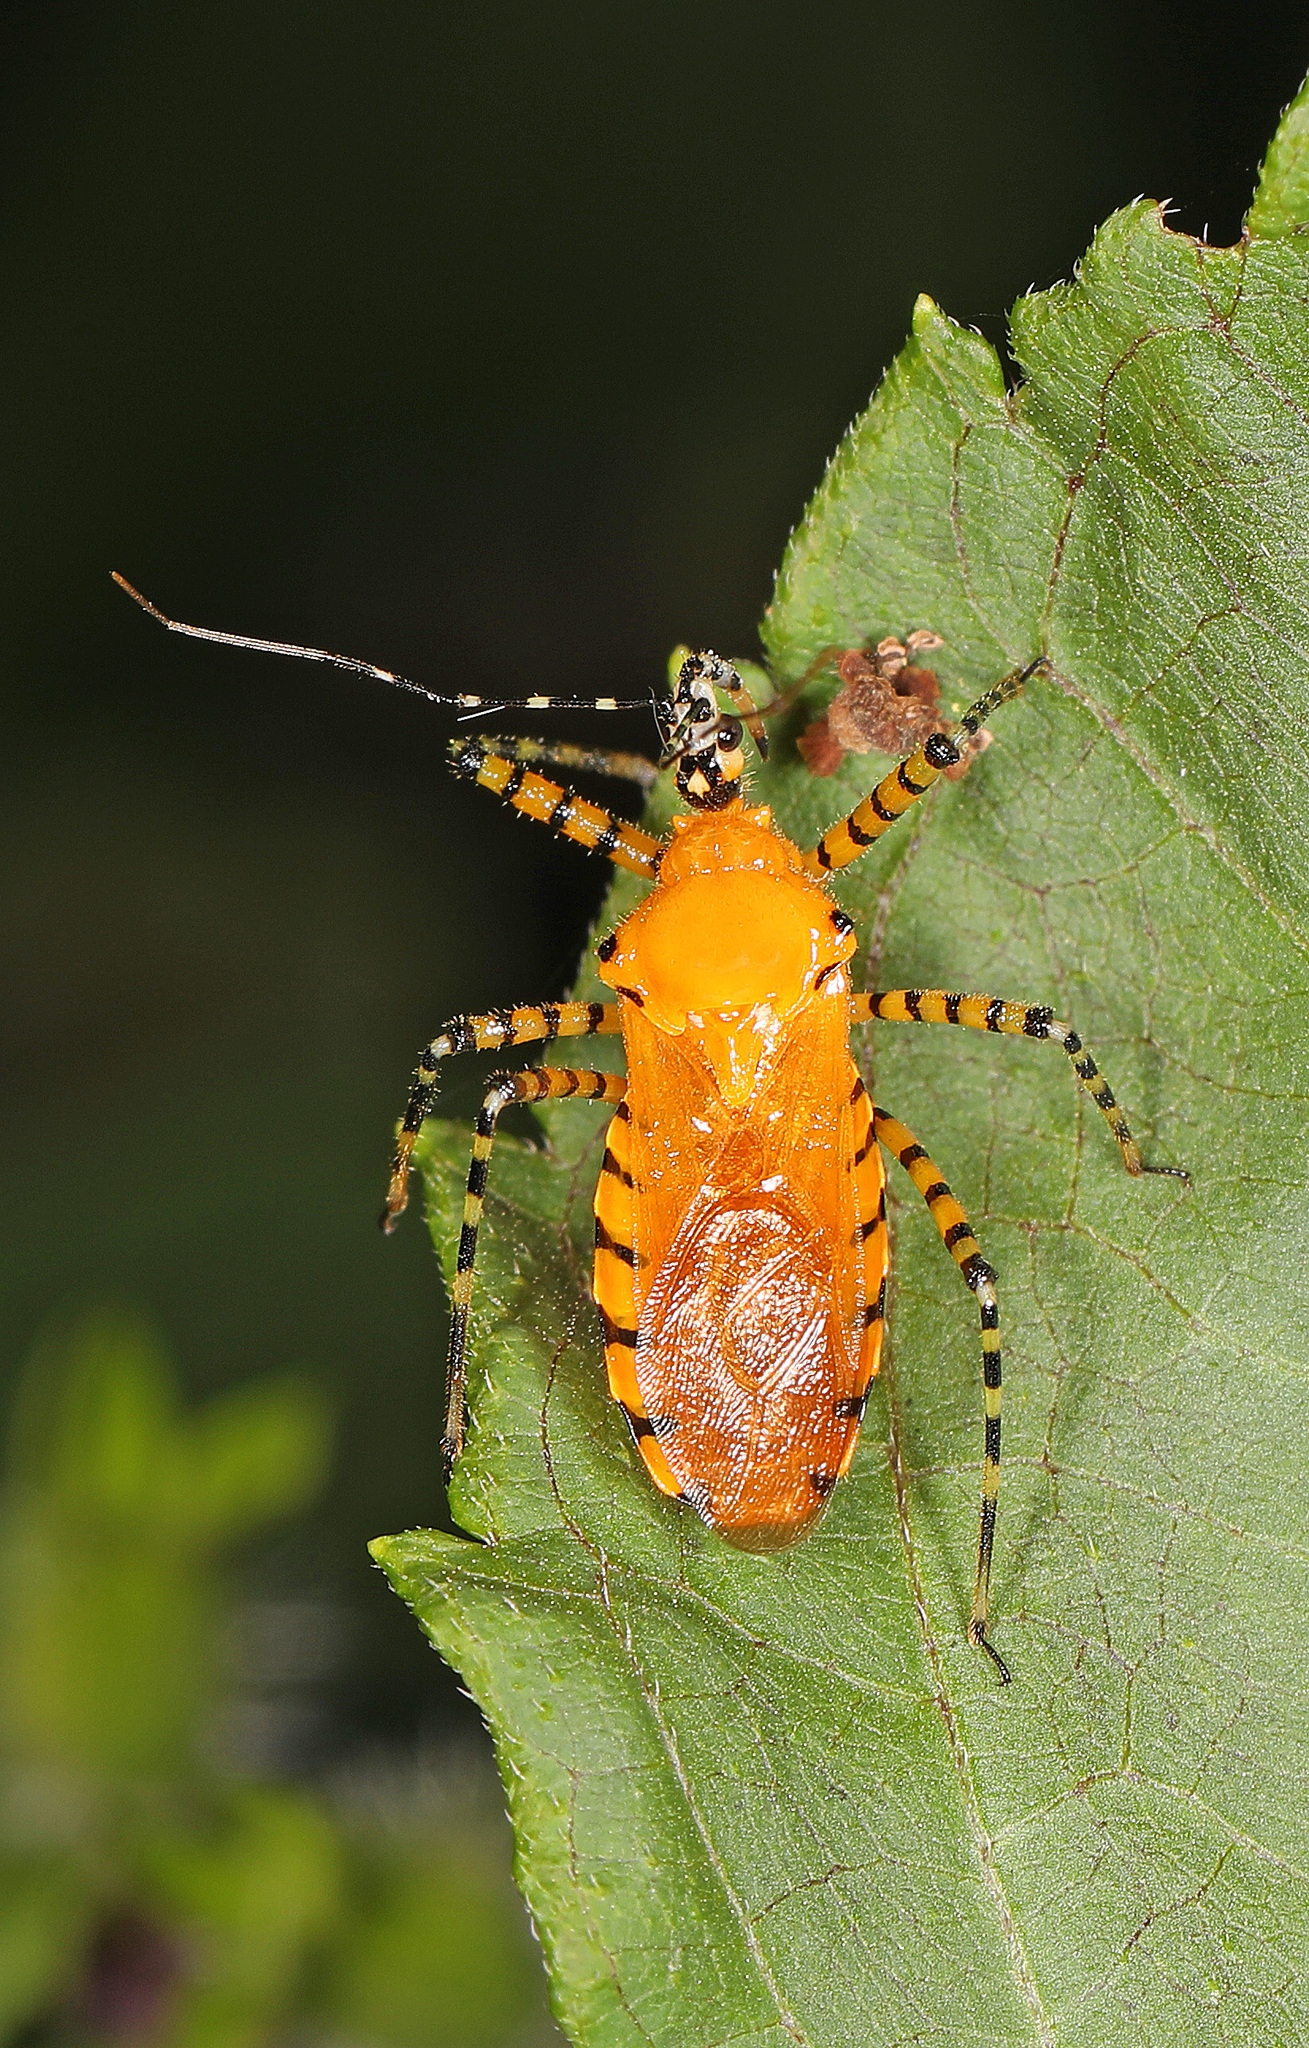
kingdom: Animalia
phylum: Arthropoda
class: Insecta
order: Hemiptera
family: Reduviidae
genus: Pselliopus
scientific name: Pselliopus barberi
